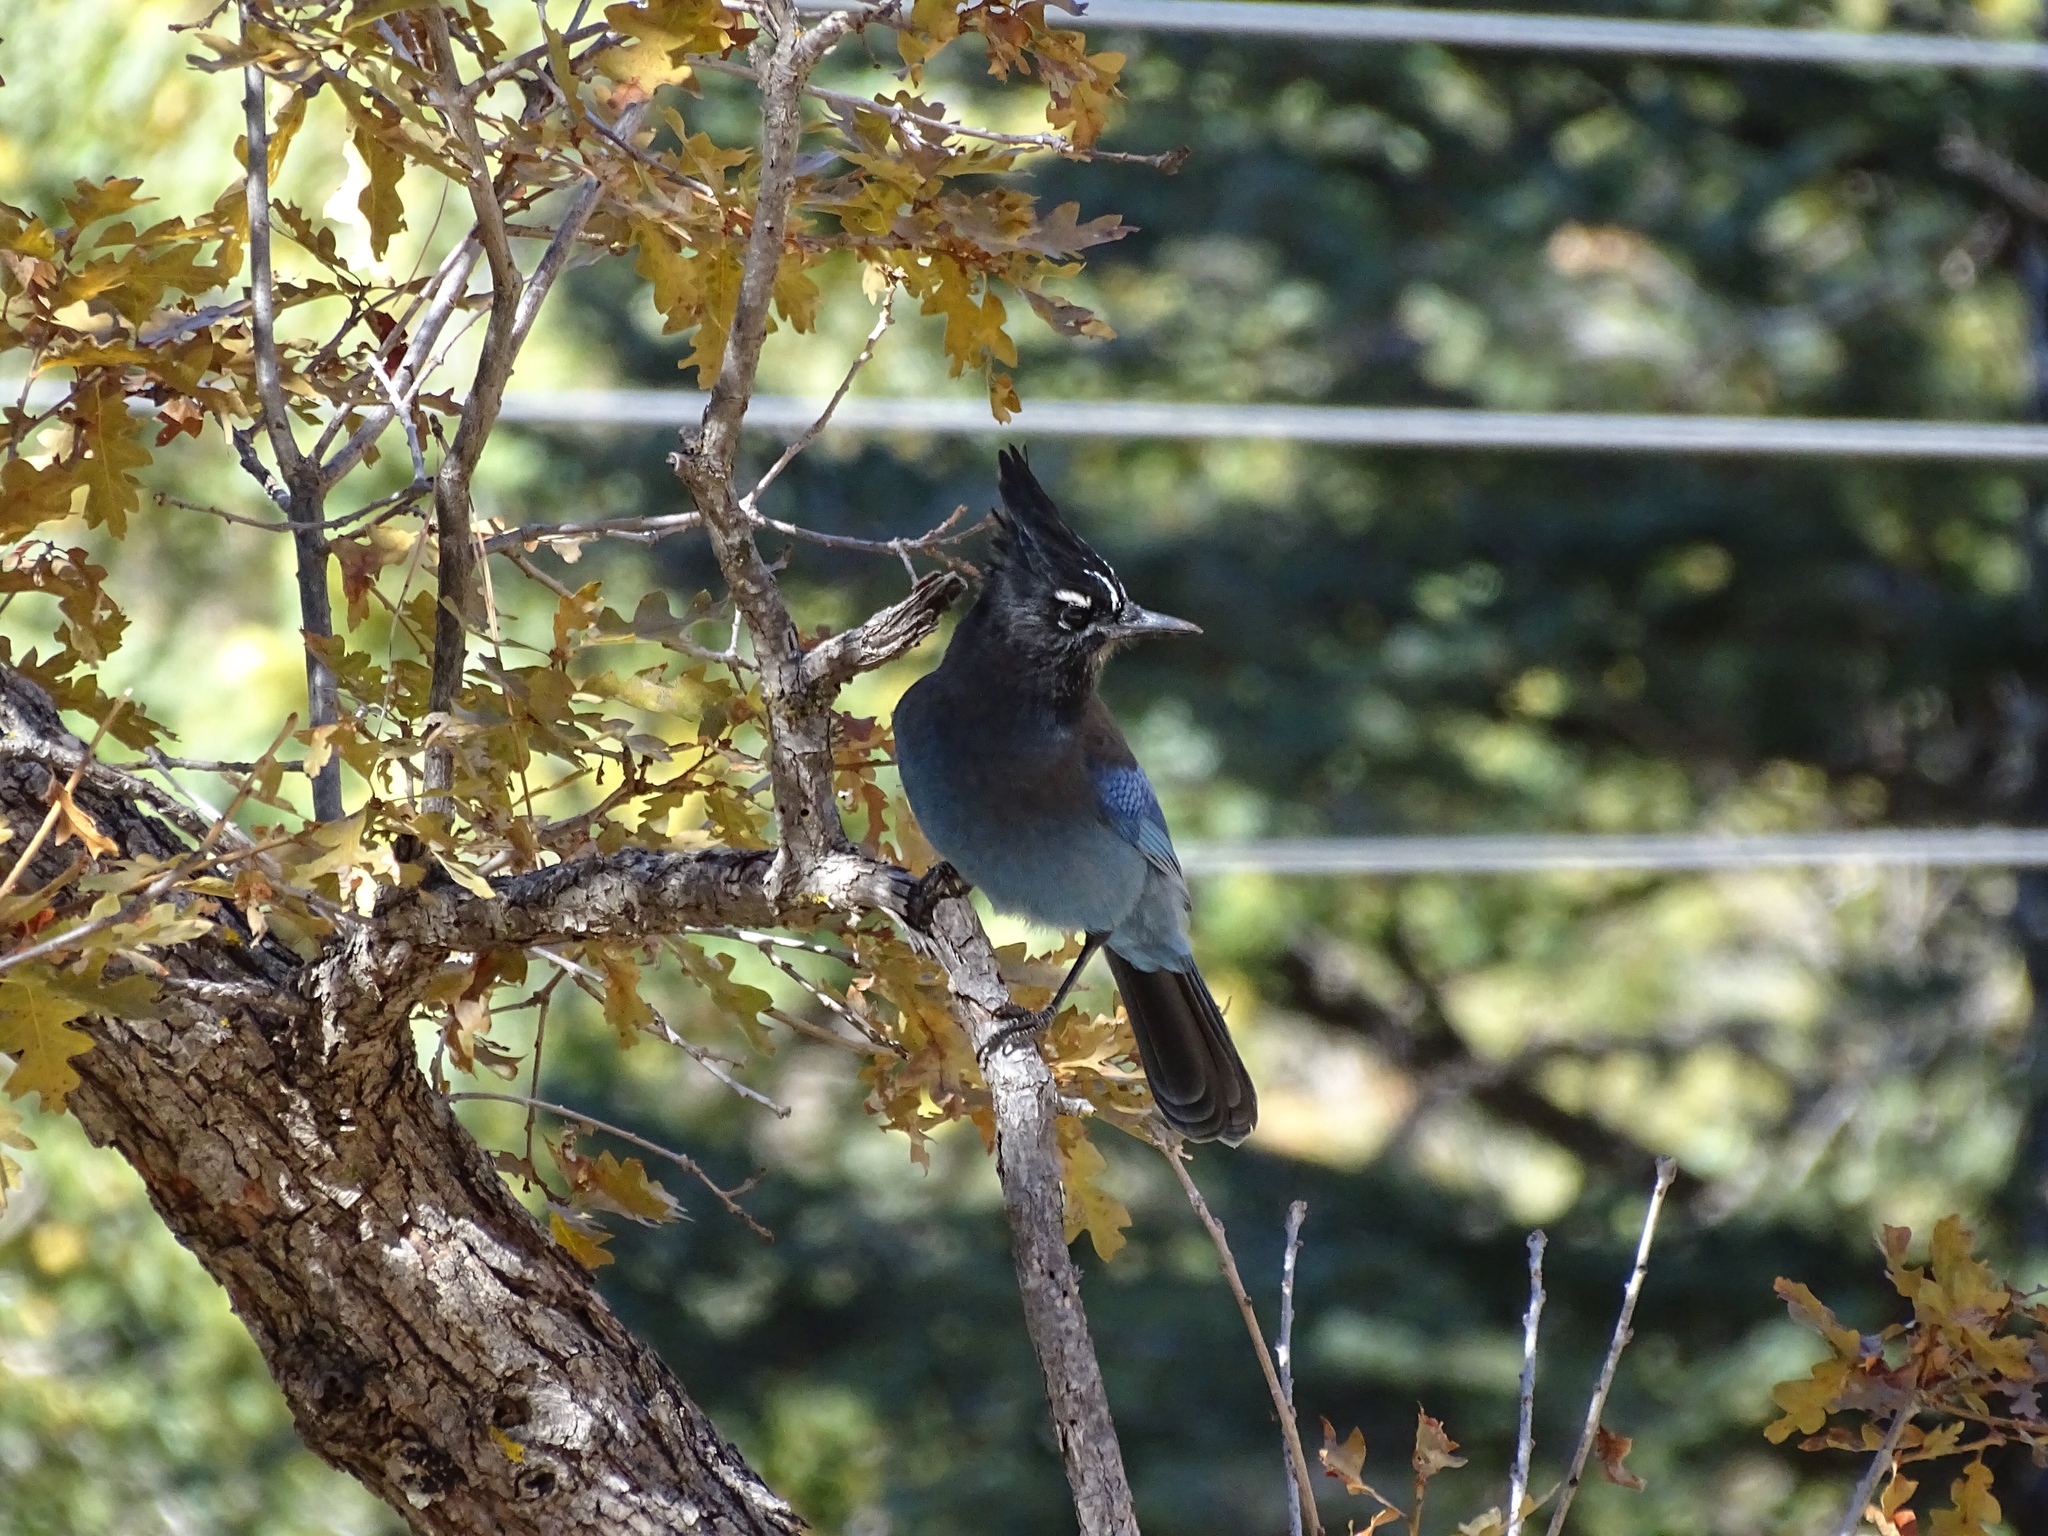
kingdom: Animalia
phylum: Chordata
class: Aves
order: Passeriformes
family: Corvidae
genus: Cyanocitta
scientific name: Cyanocitta stelleri
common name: Steller's jay
